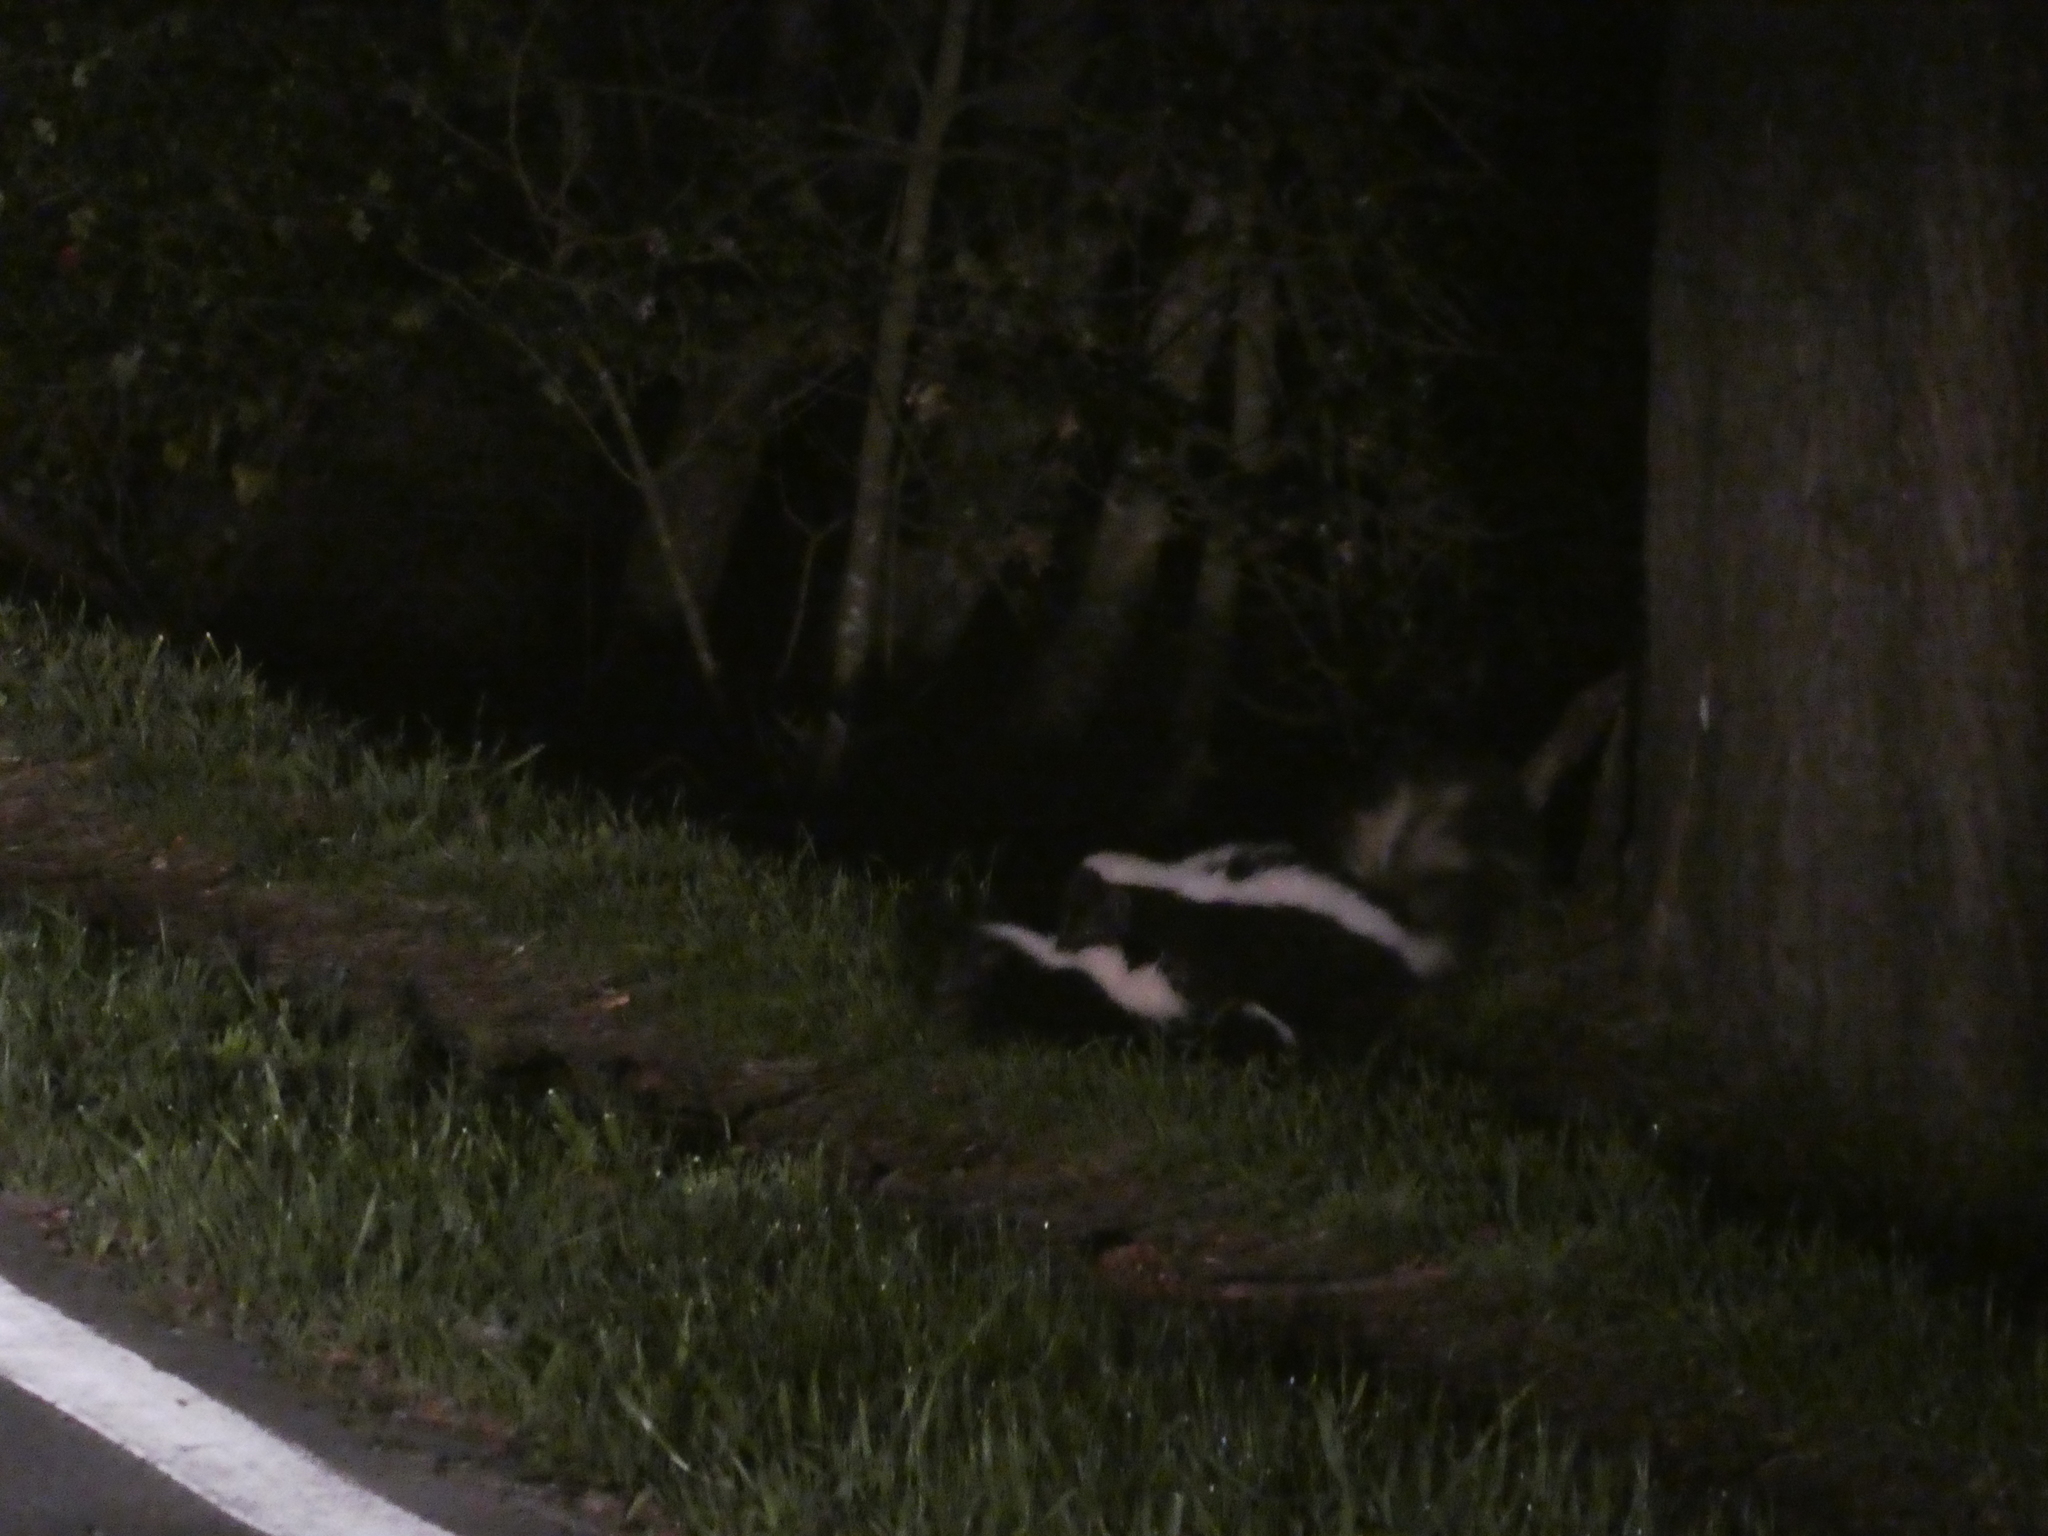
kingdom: Animalia
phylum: Chordata
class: Mammalia
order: Carnivora
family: Mephitidae
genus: Mephitis
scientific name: Mephitis mephitis
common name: Striped skunk
